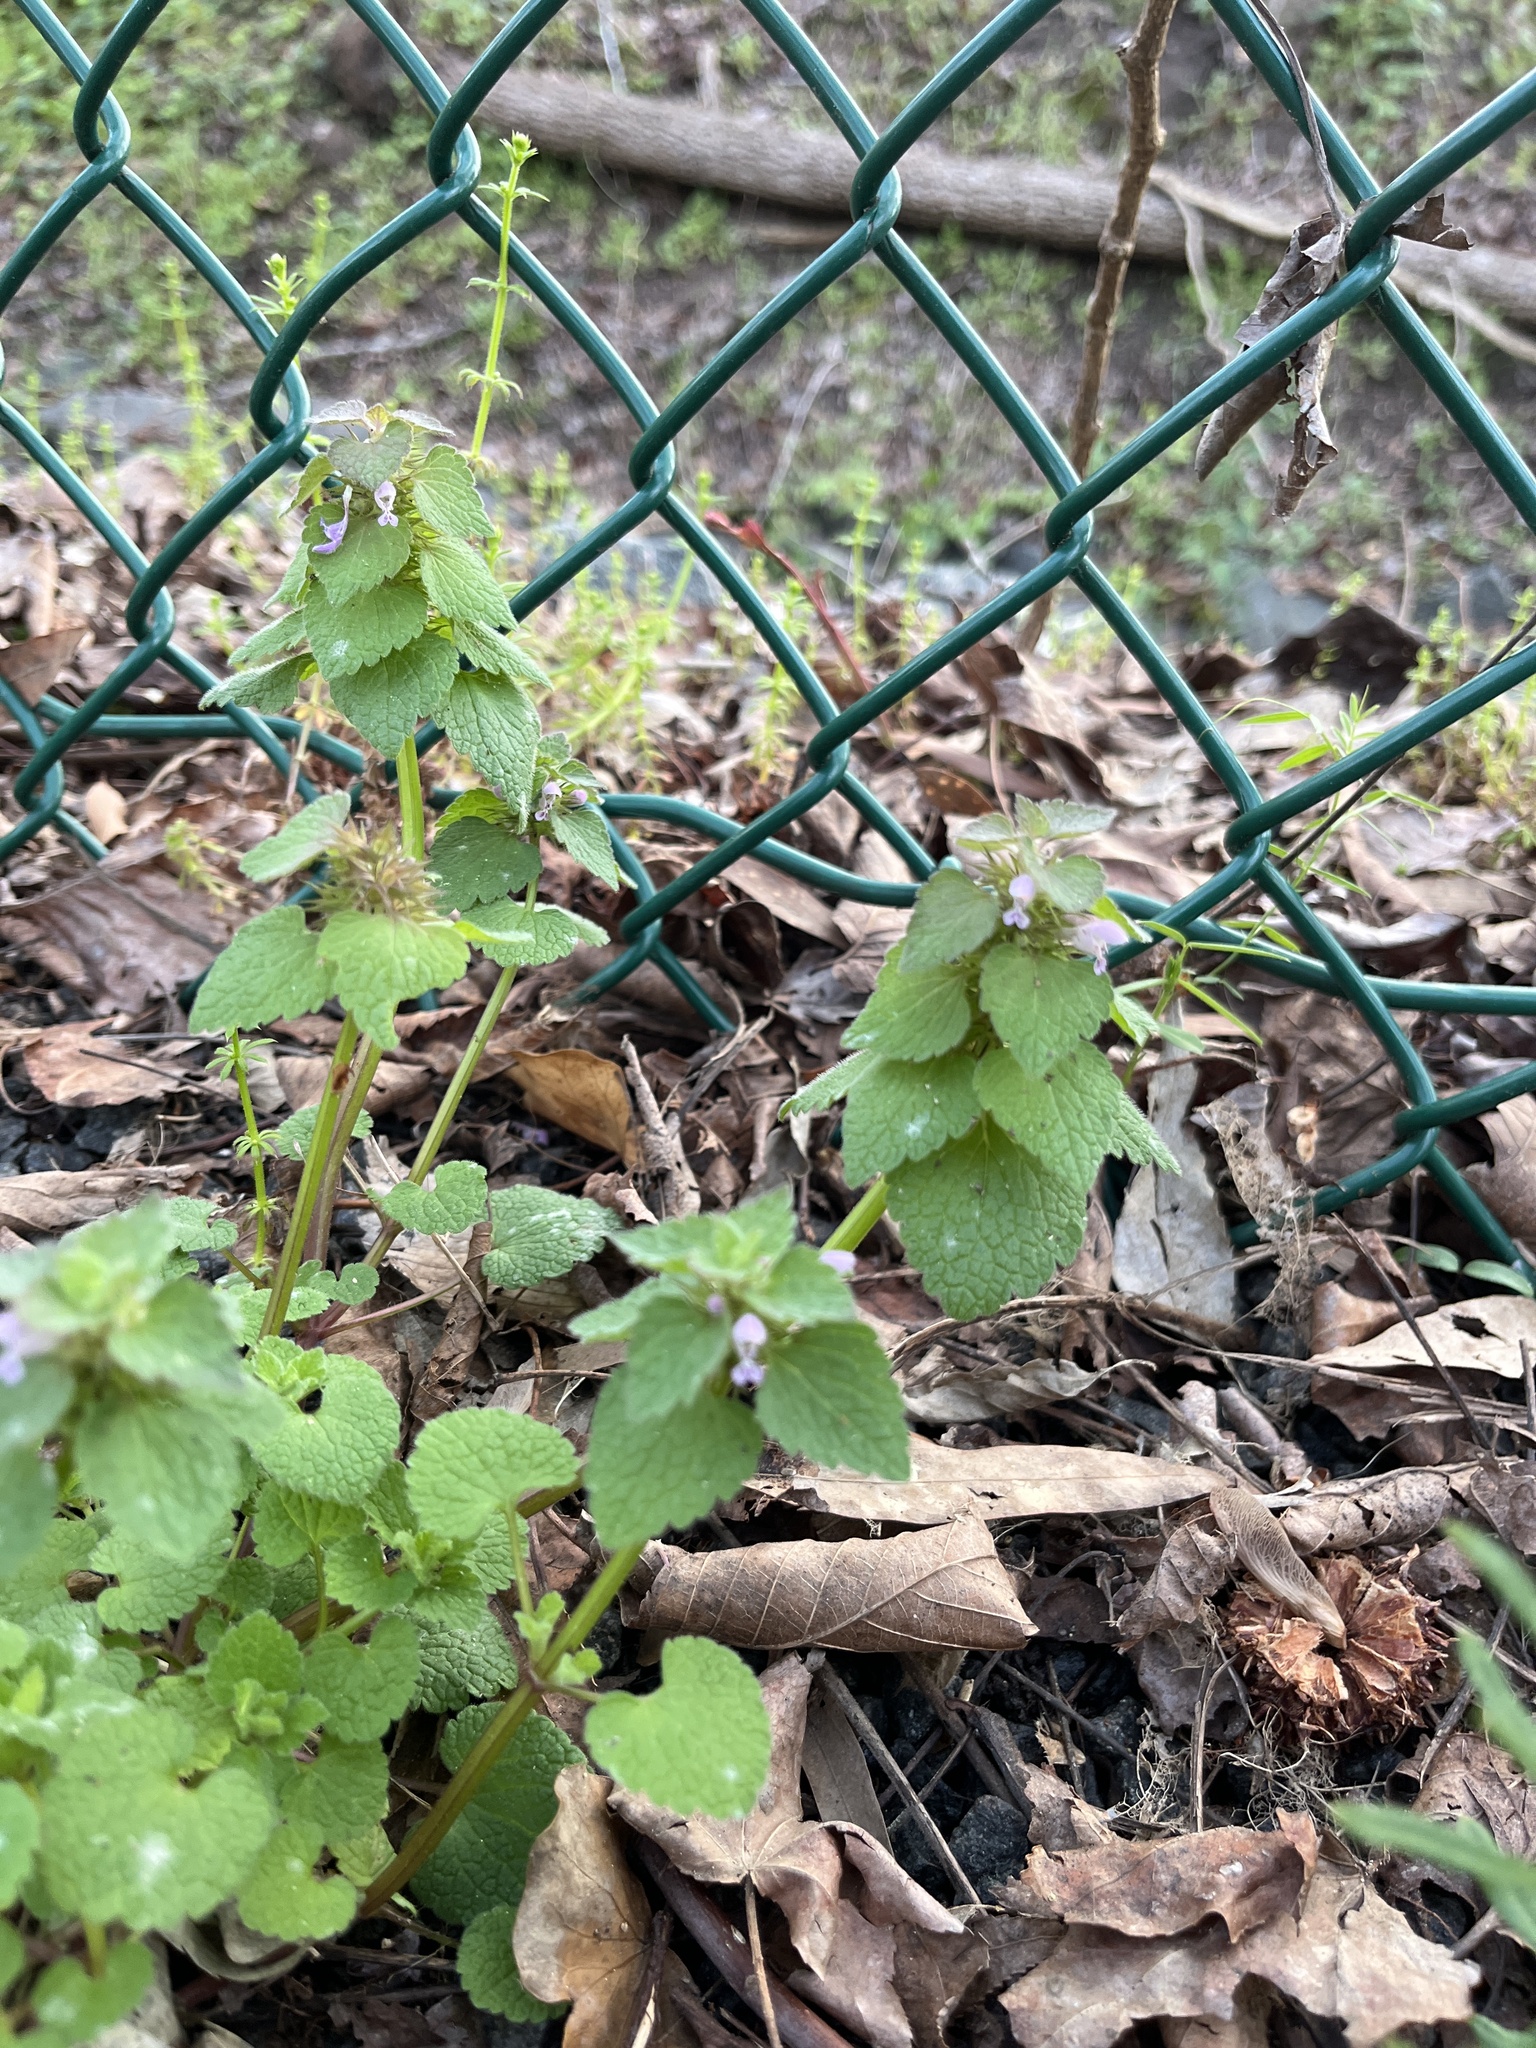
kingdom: Plantae
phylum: Tracheophyta
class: Magnoliopsida
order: Lamiales
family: Lamiaceae
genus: Lamium
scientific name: Lamium purpureum
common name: Red dead-nettle
